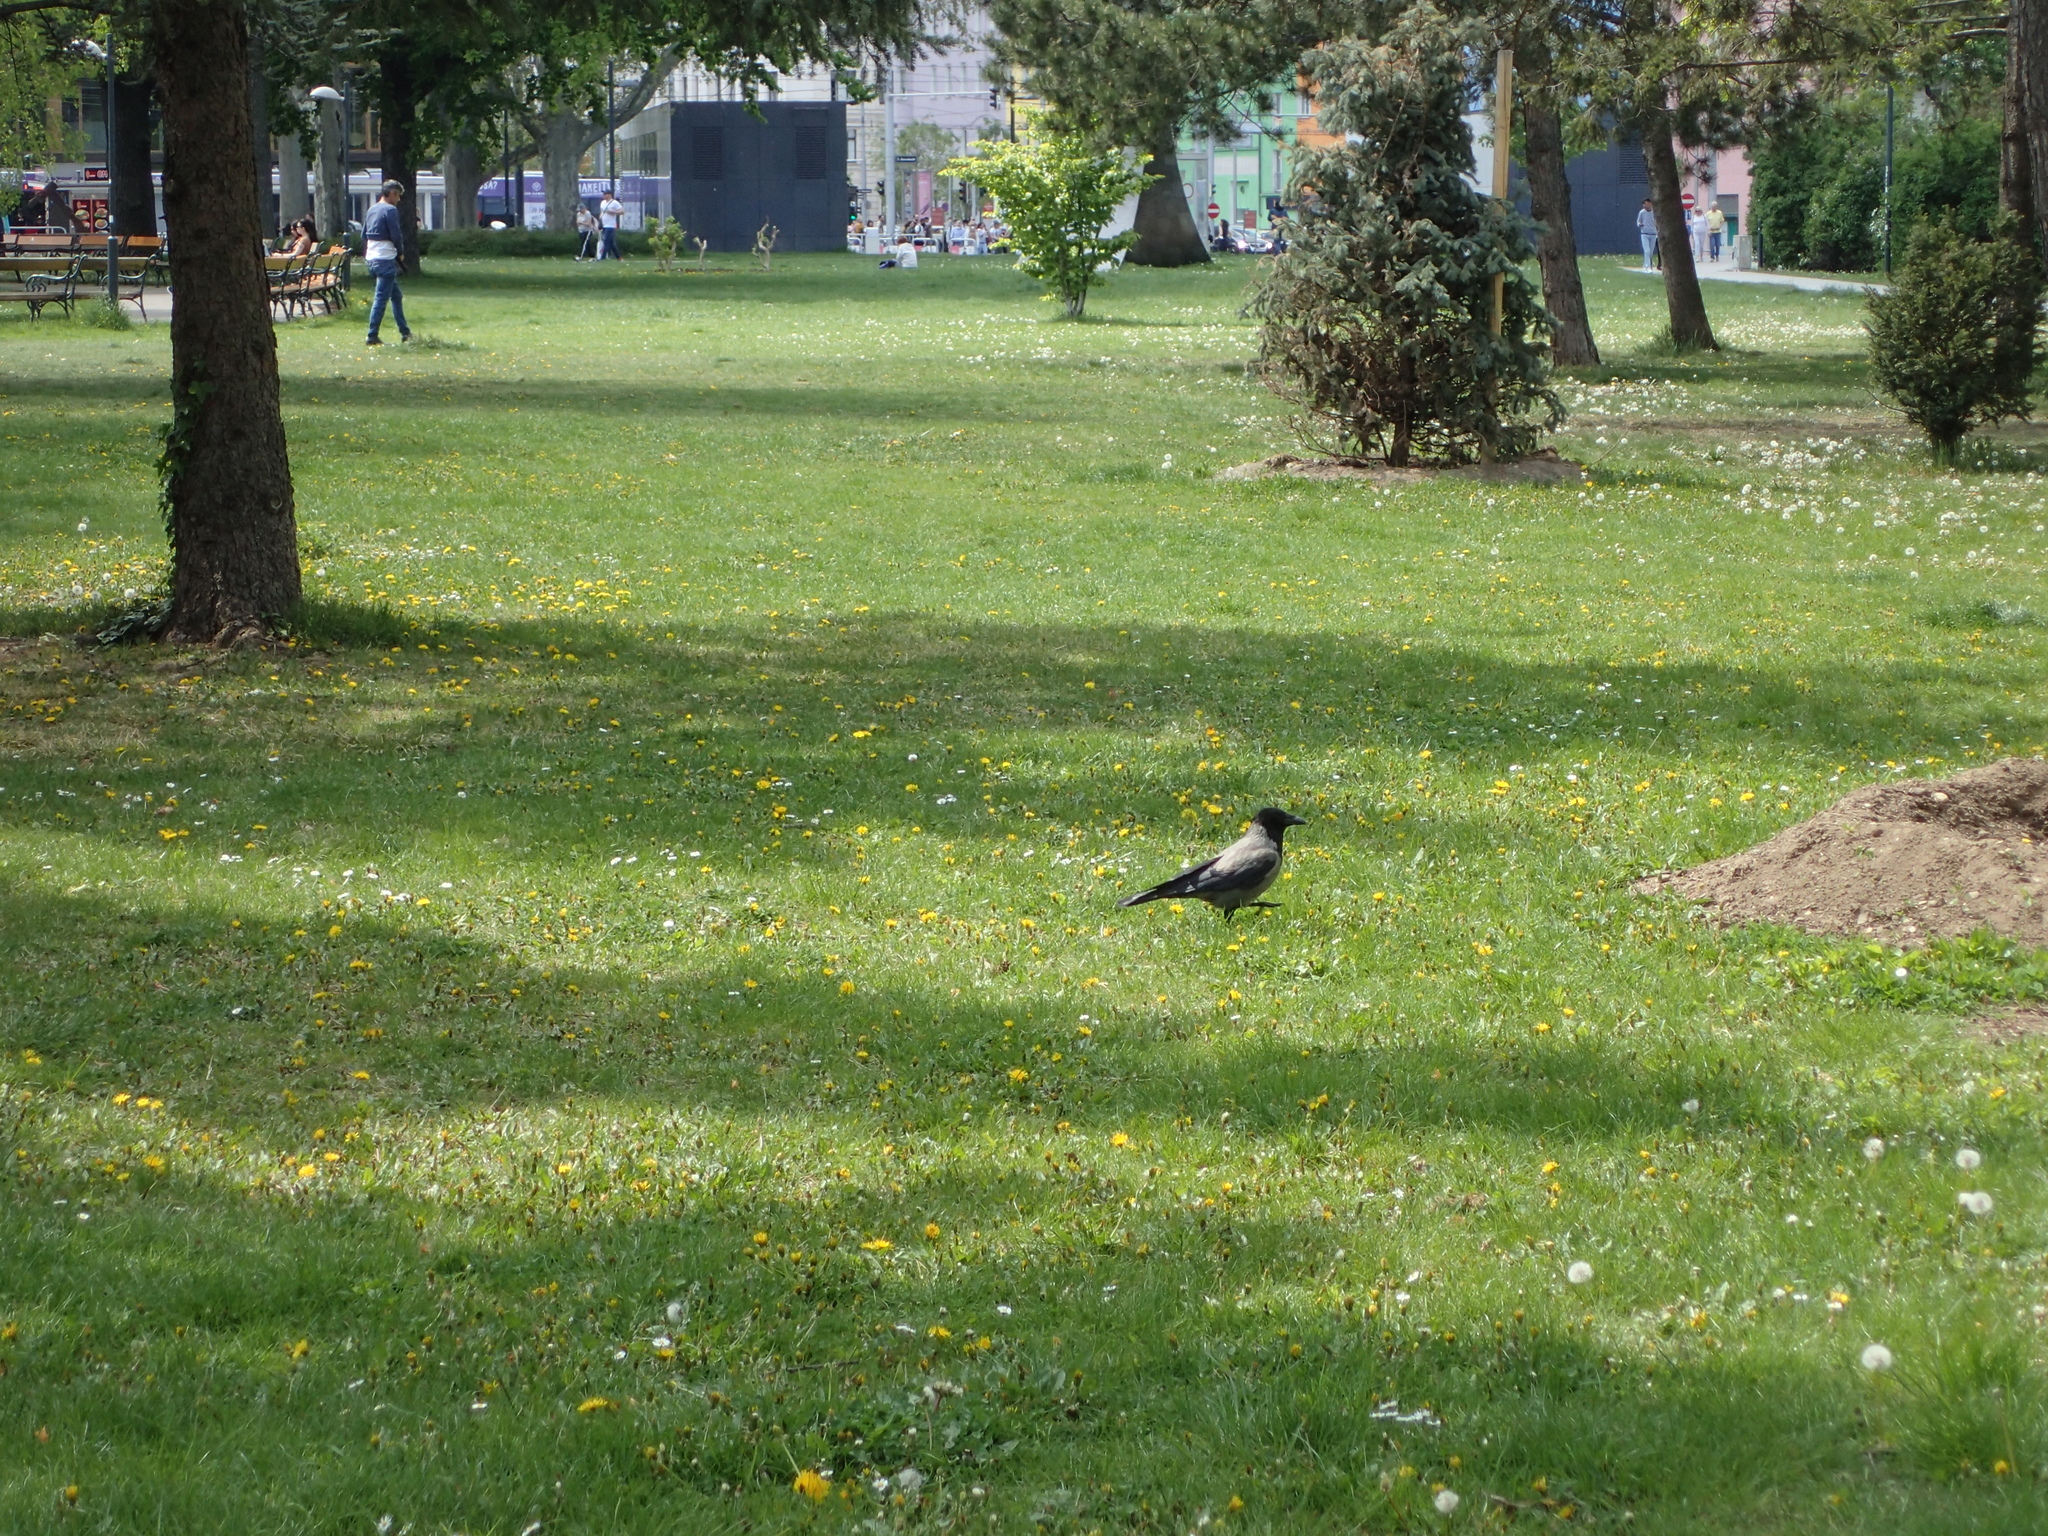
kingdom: Animalia
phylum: Chordata
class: Aves
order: Passeriformes
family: Corvidae
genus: Corvus
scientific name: Corvus cornix
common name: Hooded crow
